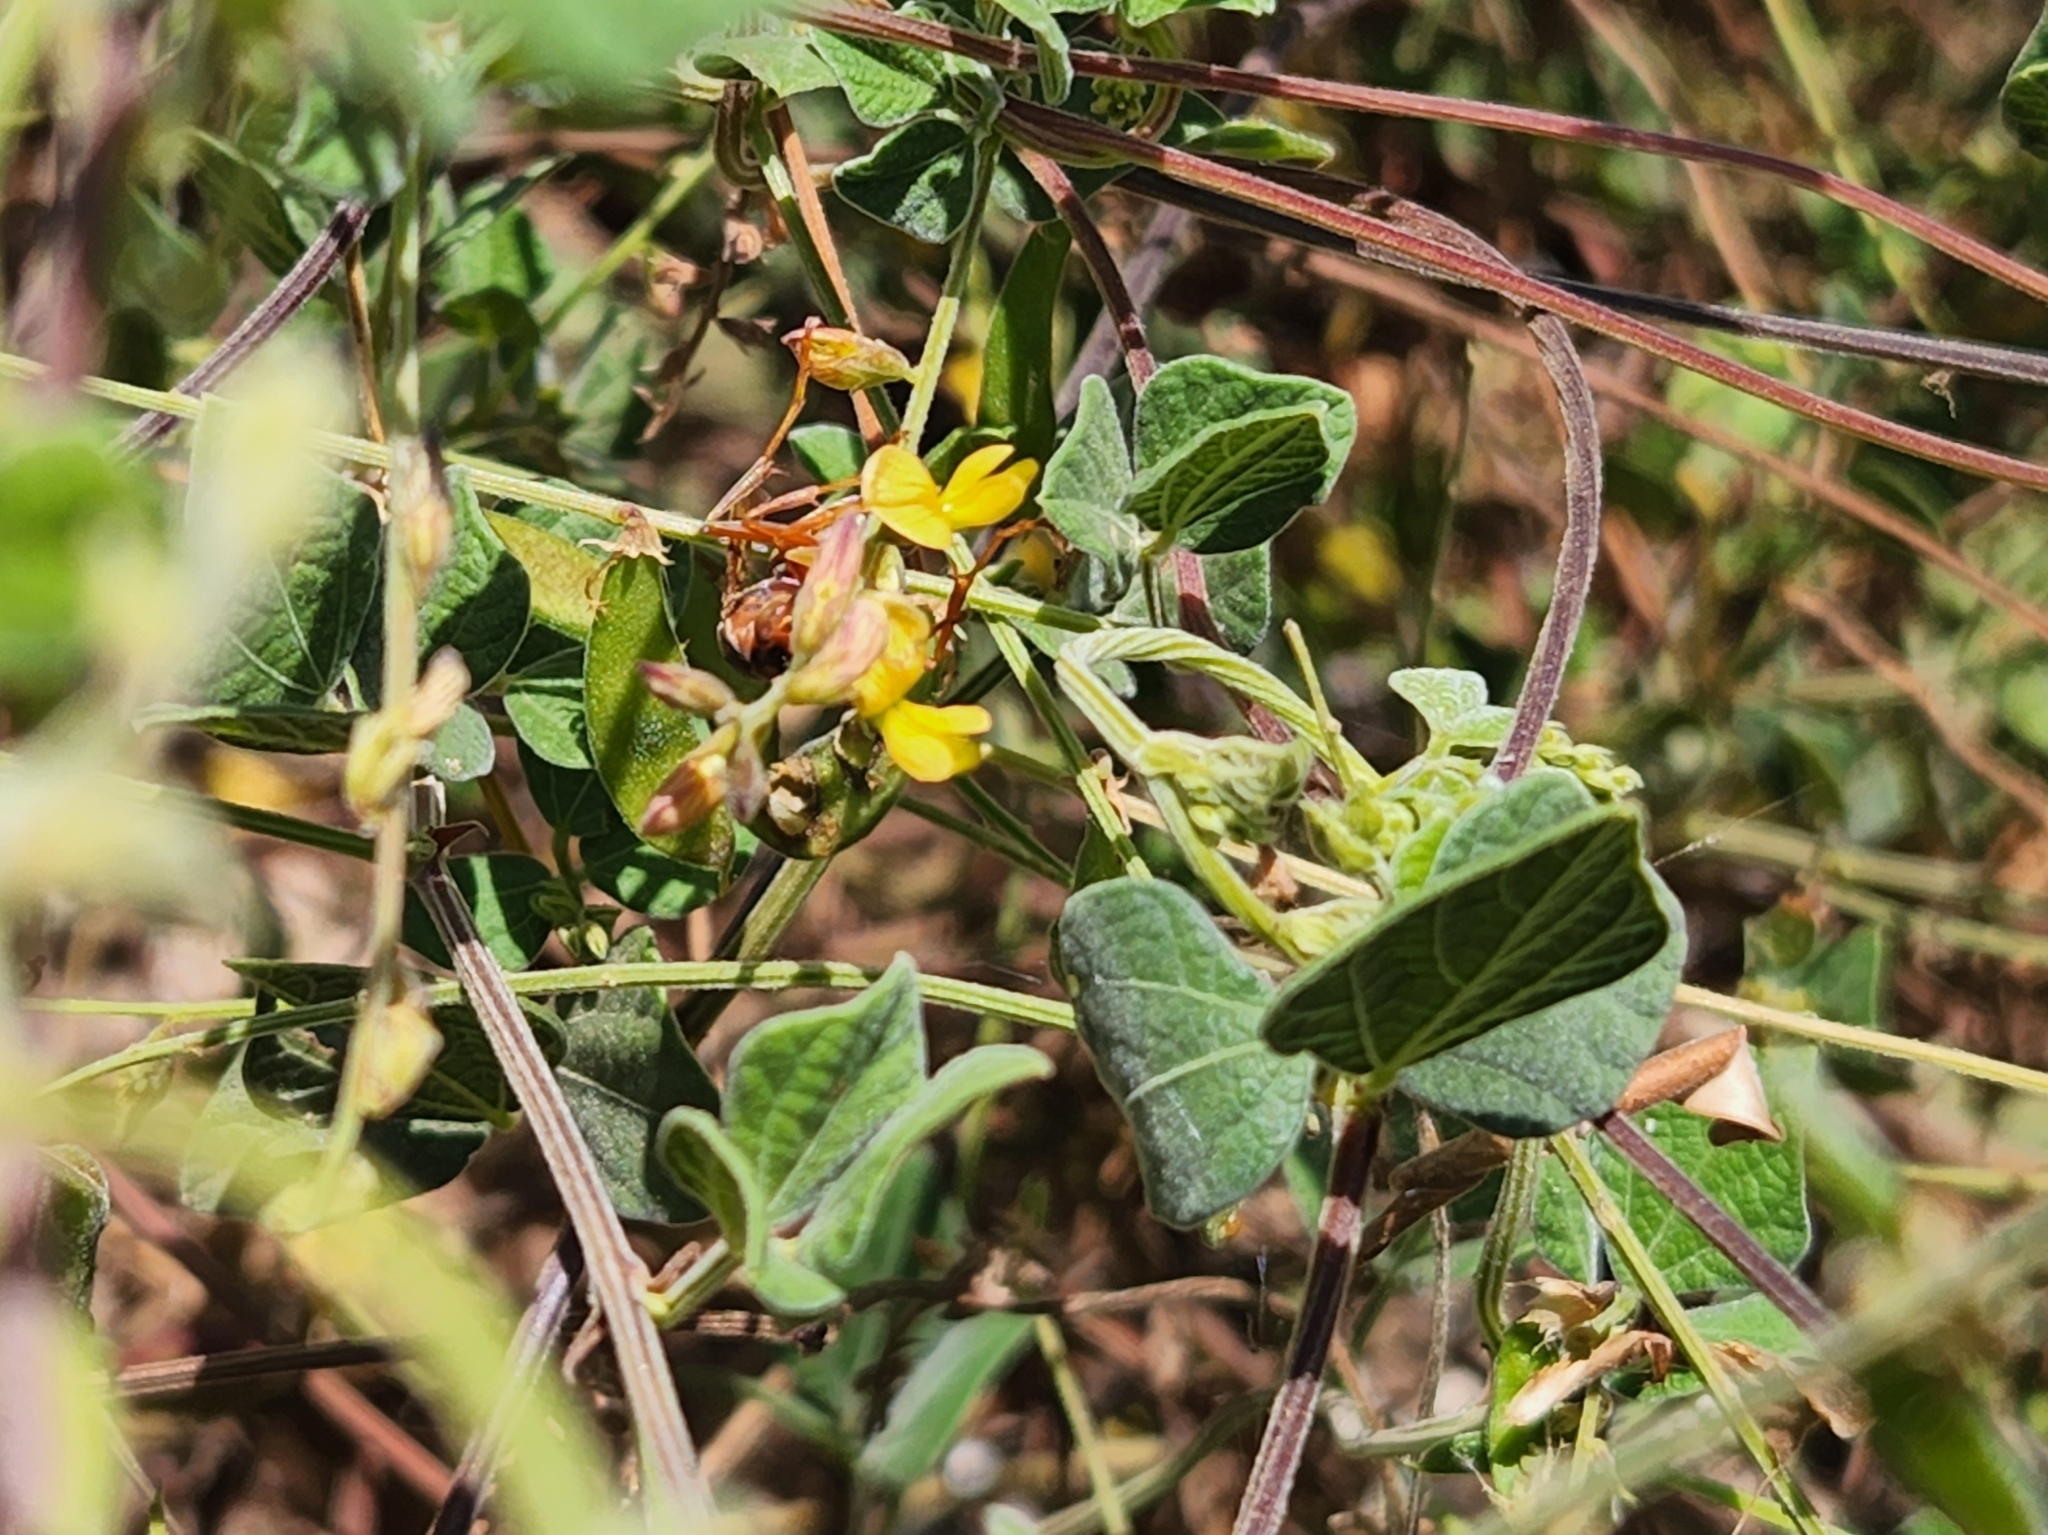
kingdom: Animalia
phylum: Arthropoda
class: Insecta
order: Hymenoptera
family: Eumenidae
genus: Polistes
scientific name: Polistes dorsalis
